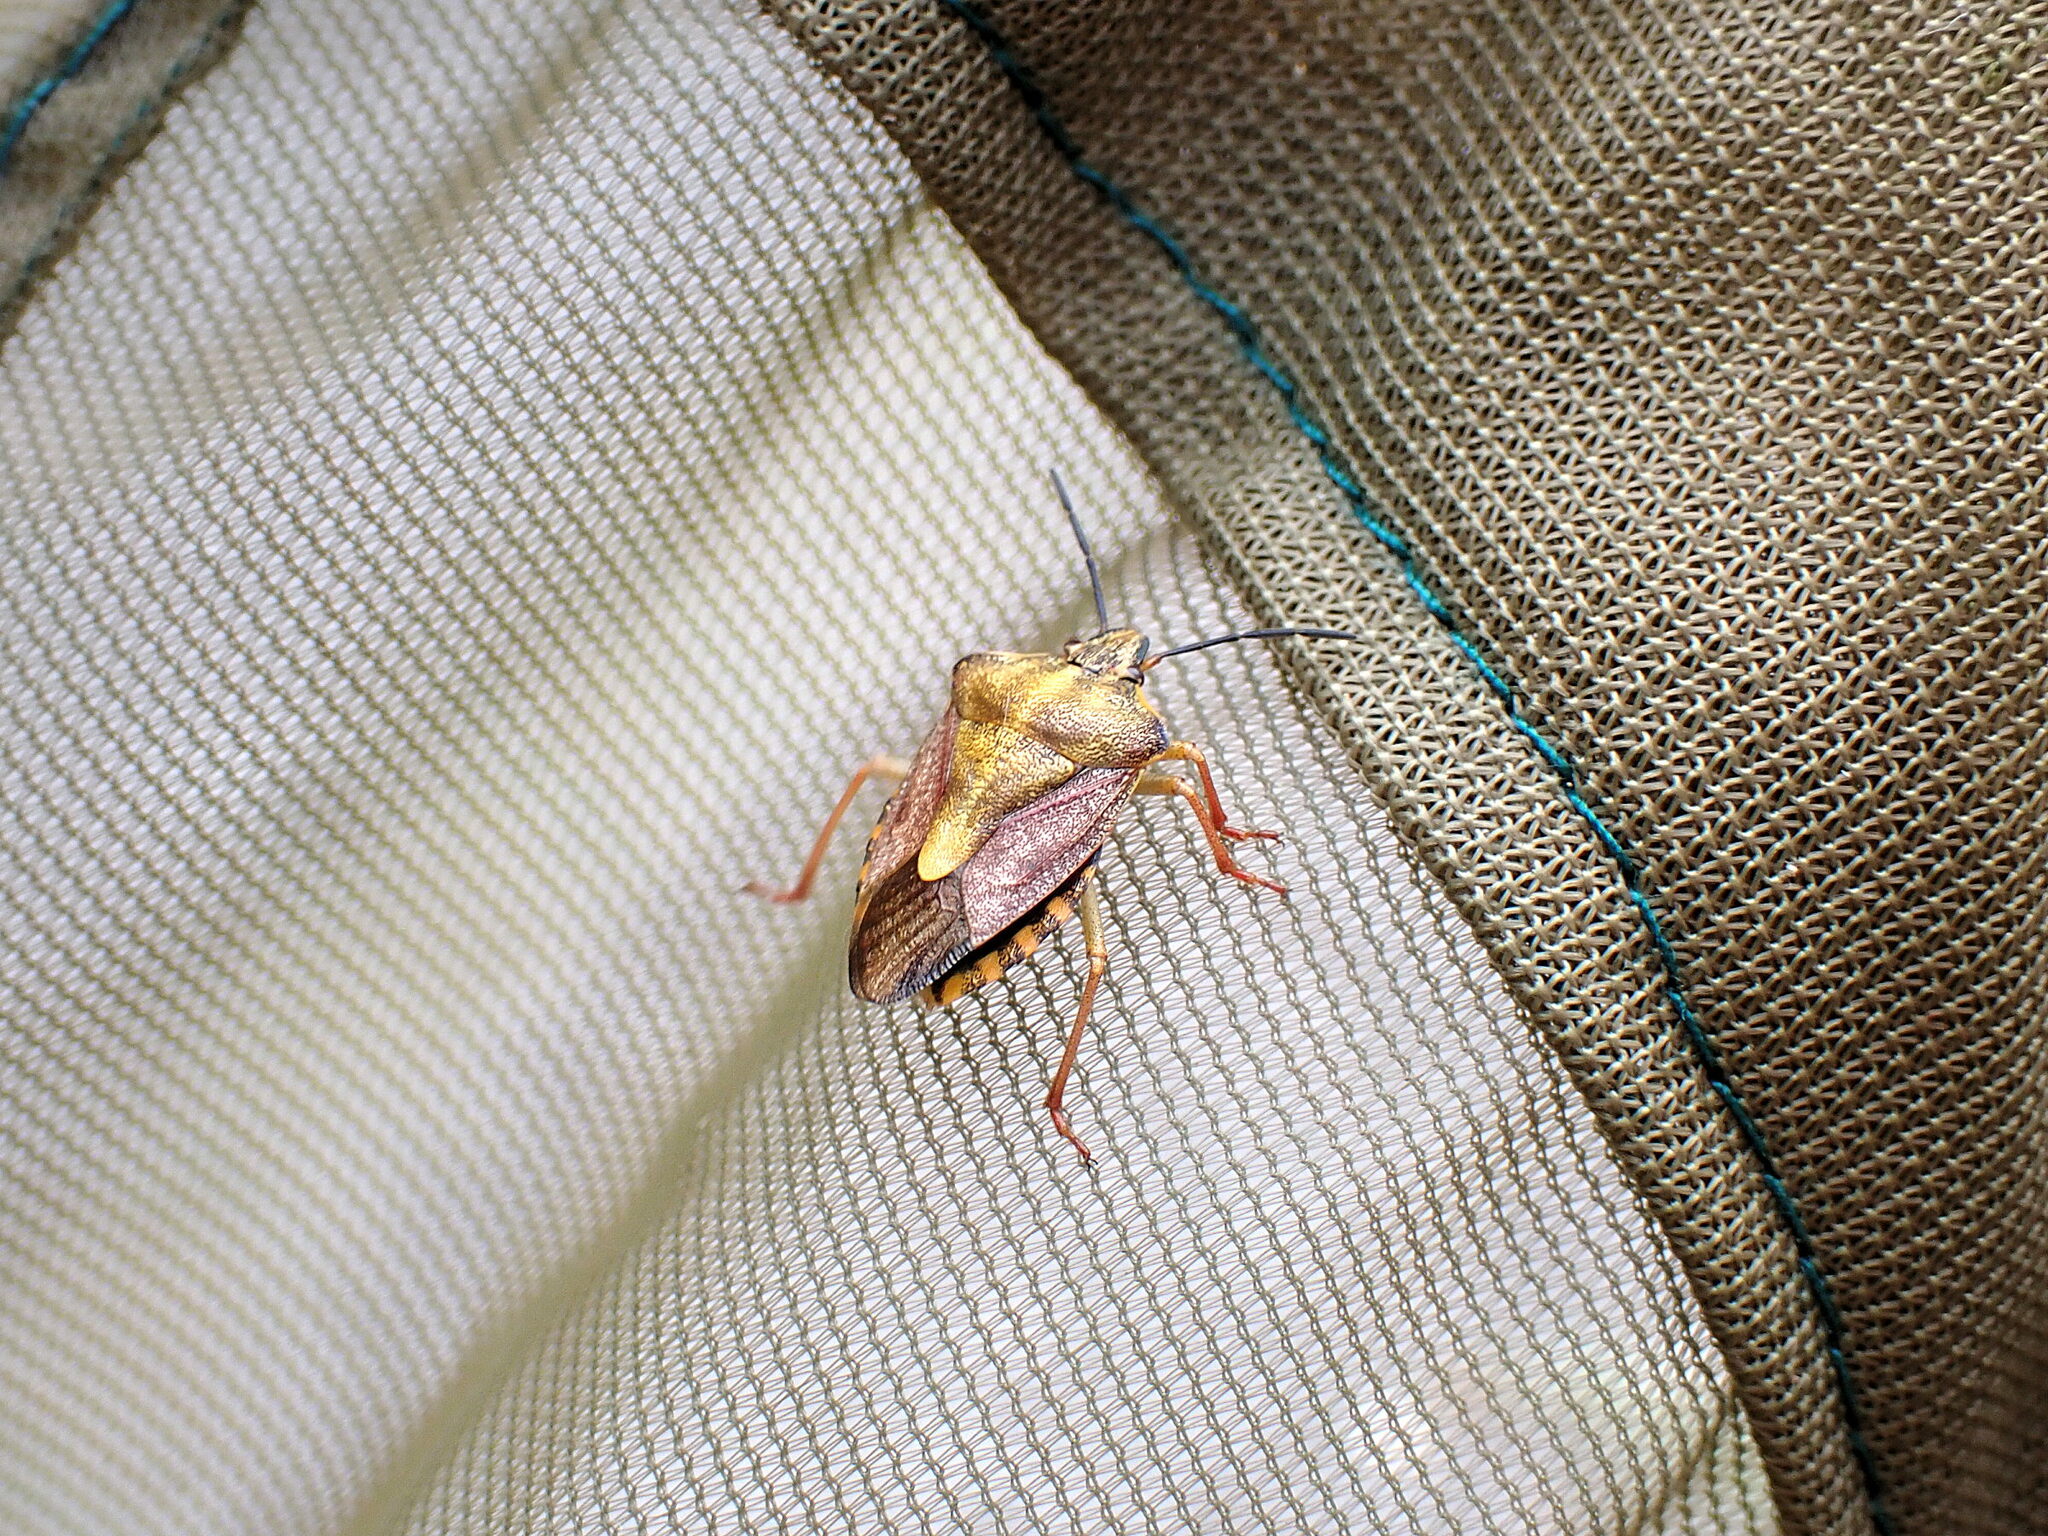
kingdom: Animalia
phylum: Arthropoda
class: Insecta
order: Hemiptera
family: Pentatomidae
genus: Carpocoris
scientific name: Carpocoris purpureipennis
